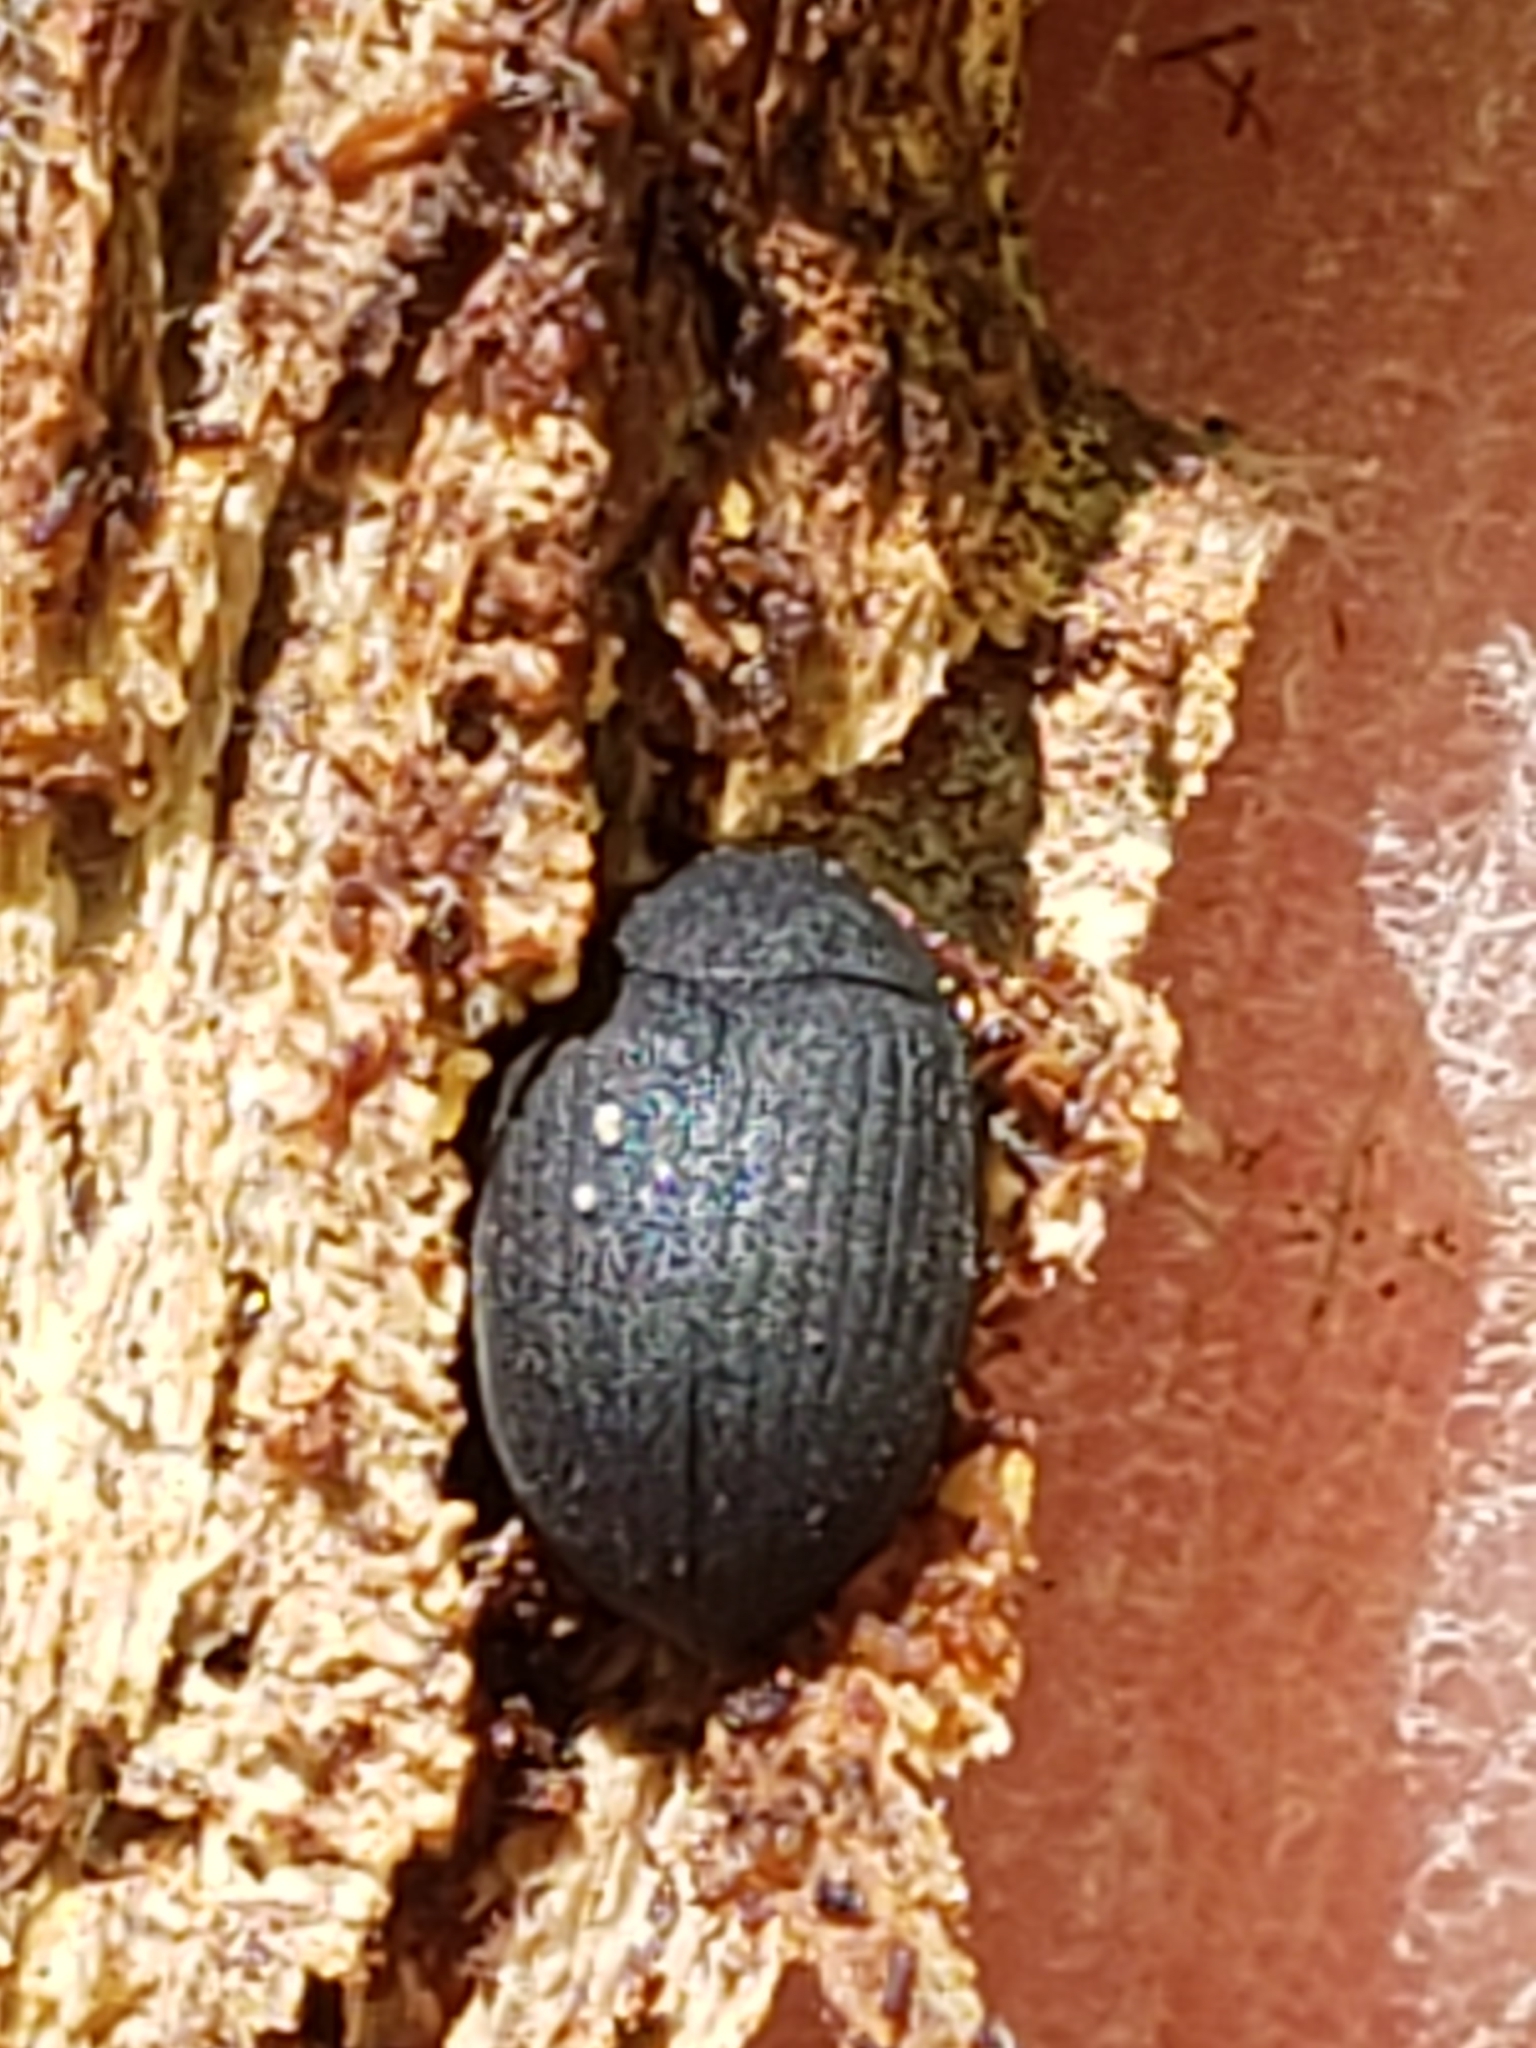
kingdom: Animalia
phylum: Arthropoda
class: Insecta
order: Coleoptera
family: Tenebrionidae
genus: Platydema
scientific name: Platydema ruficornis
